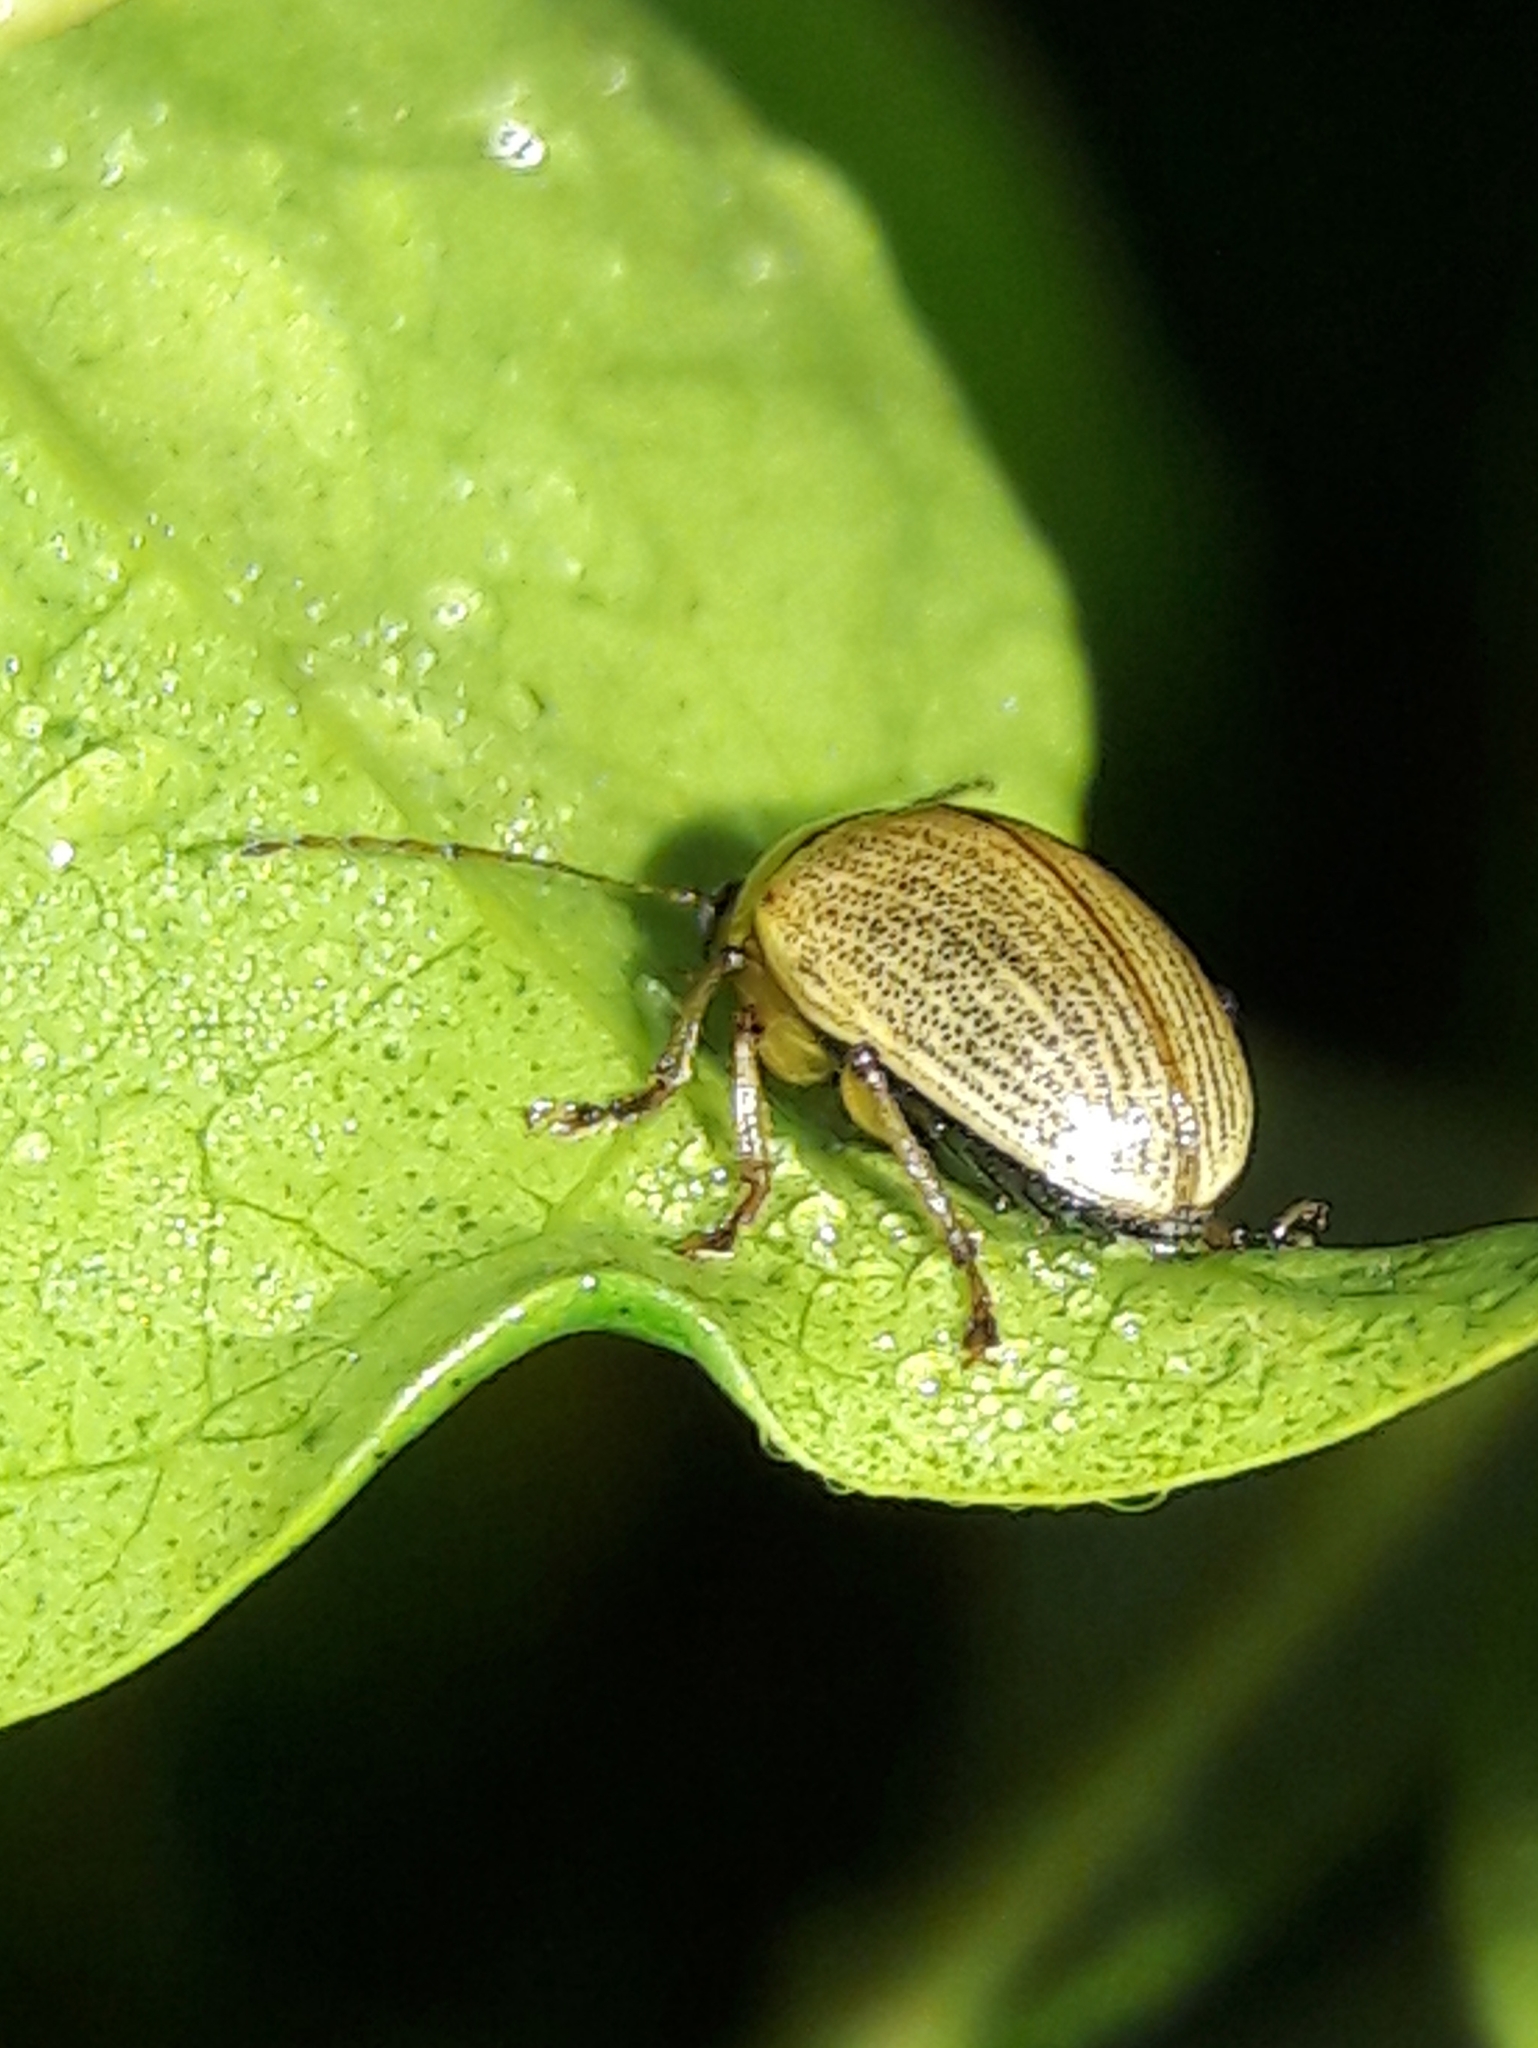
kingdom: Animalia
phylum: Arthropoda
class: Insecta
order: Coleoptera
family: Chrysomelidae
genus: Anisodera
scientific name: Anisodera ferruginea
